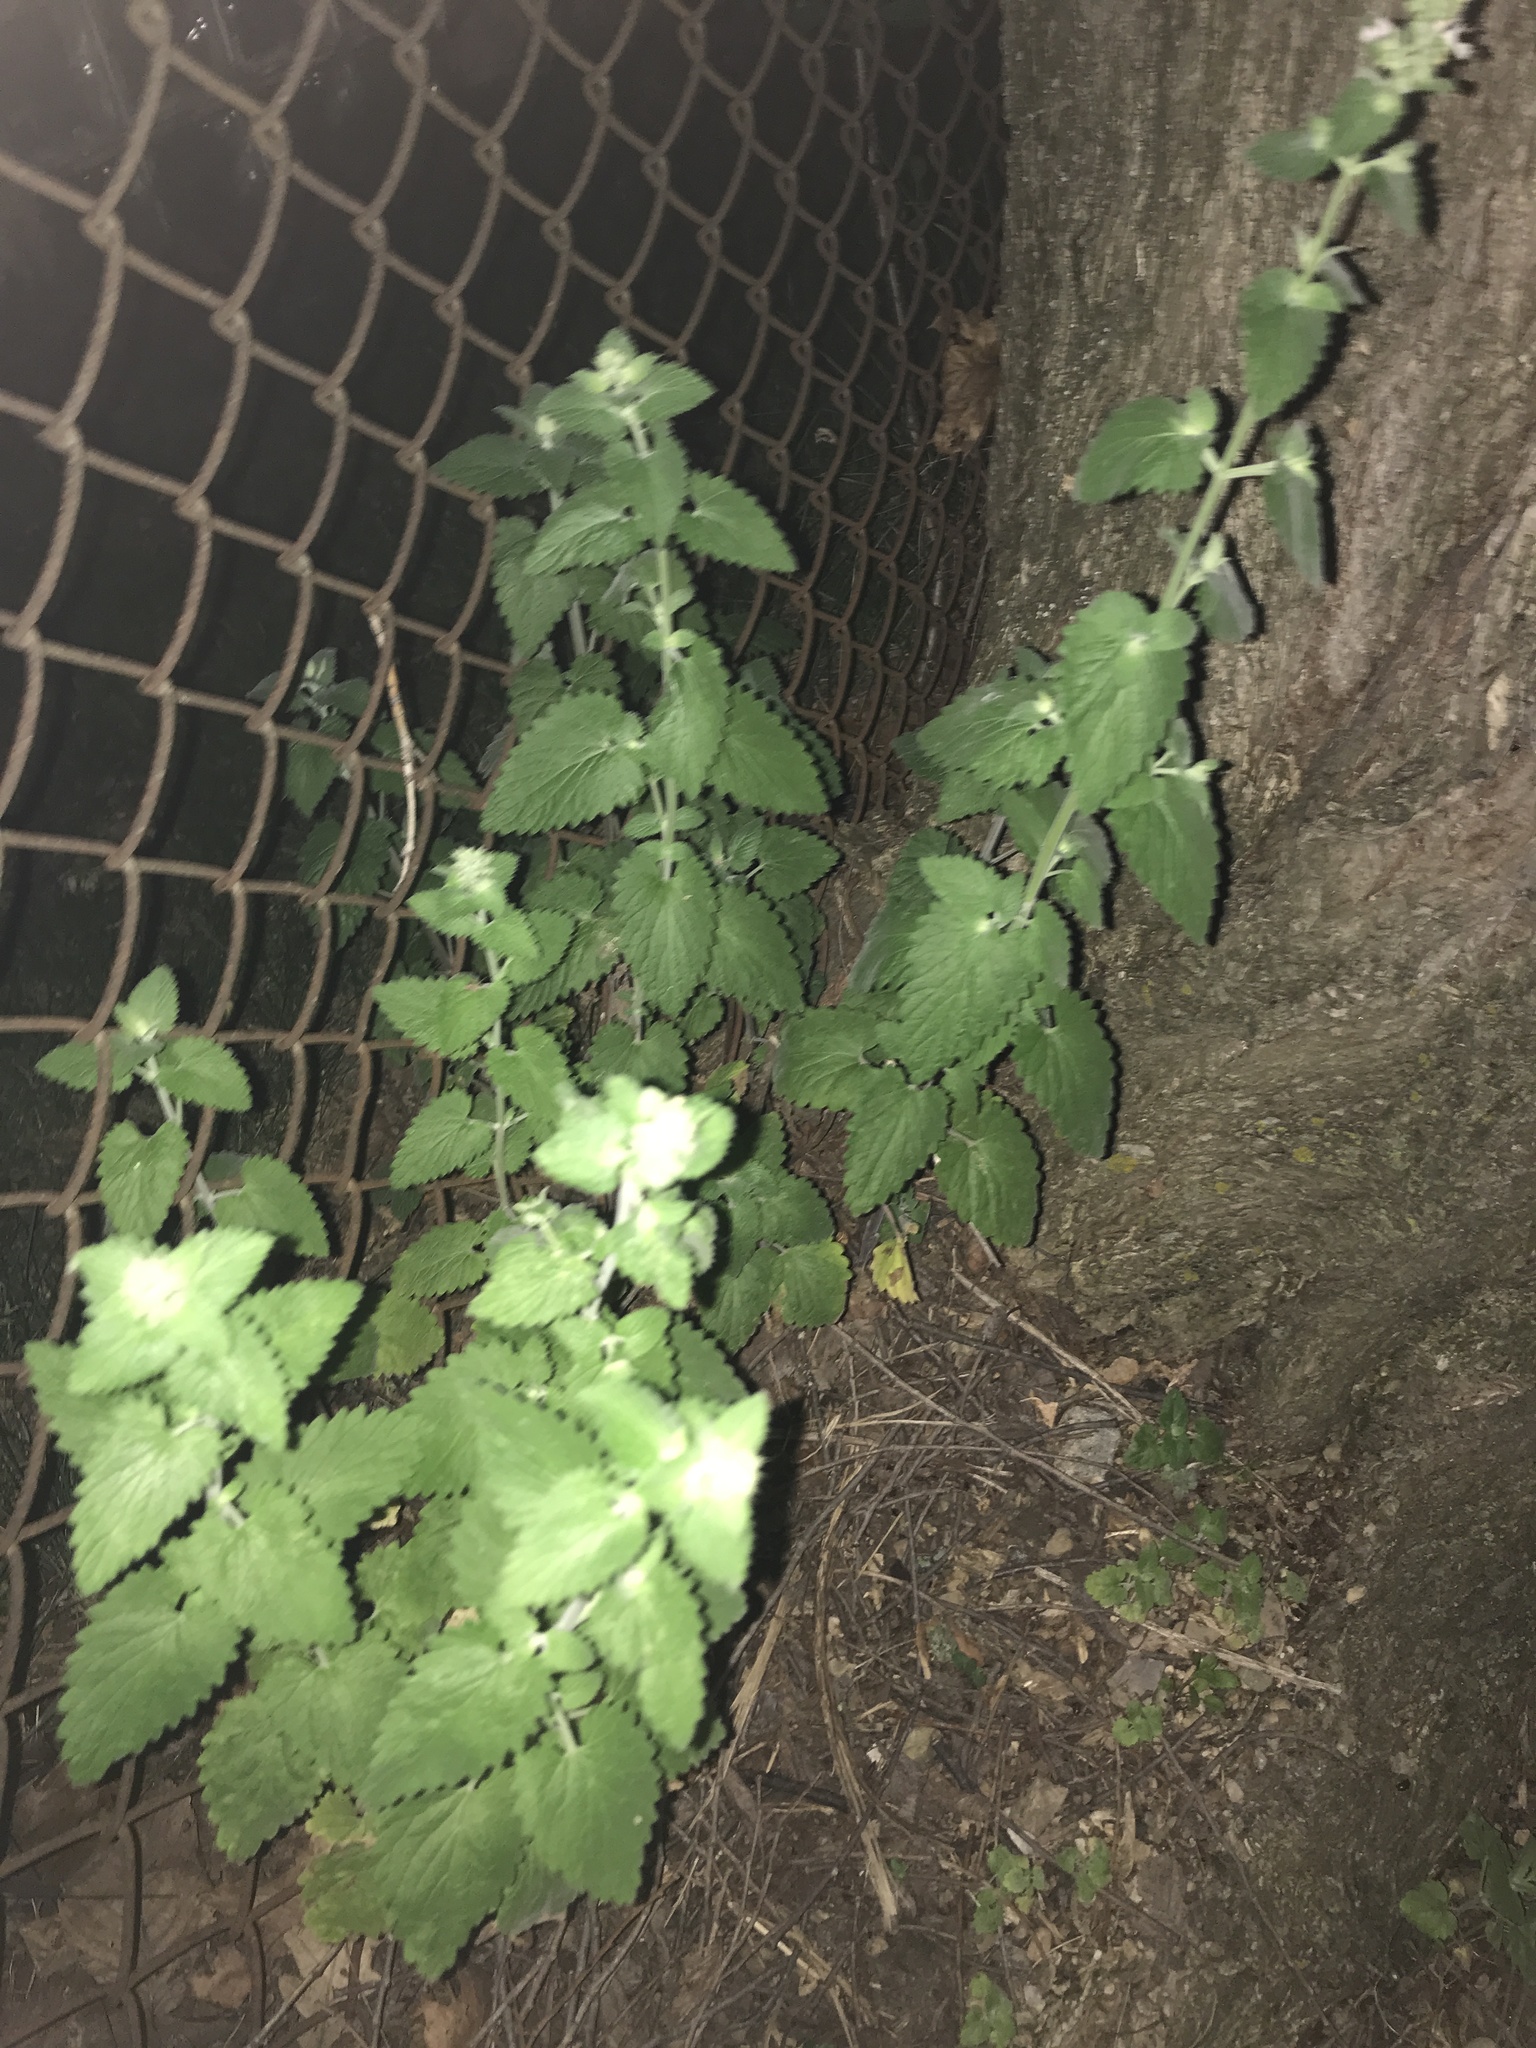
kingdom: Plantae
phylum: Tracheophyta
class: Magnoliopsida
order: Lamiales
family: Lamiaceae
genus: Nepeta
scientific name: Nepeta cataria
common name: Catnip
